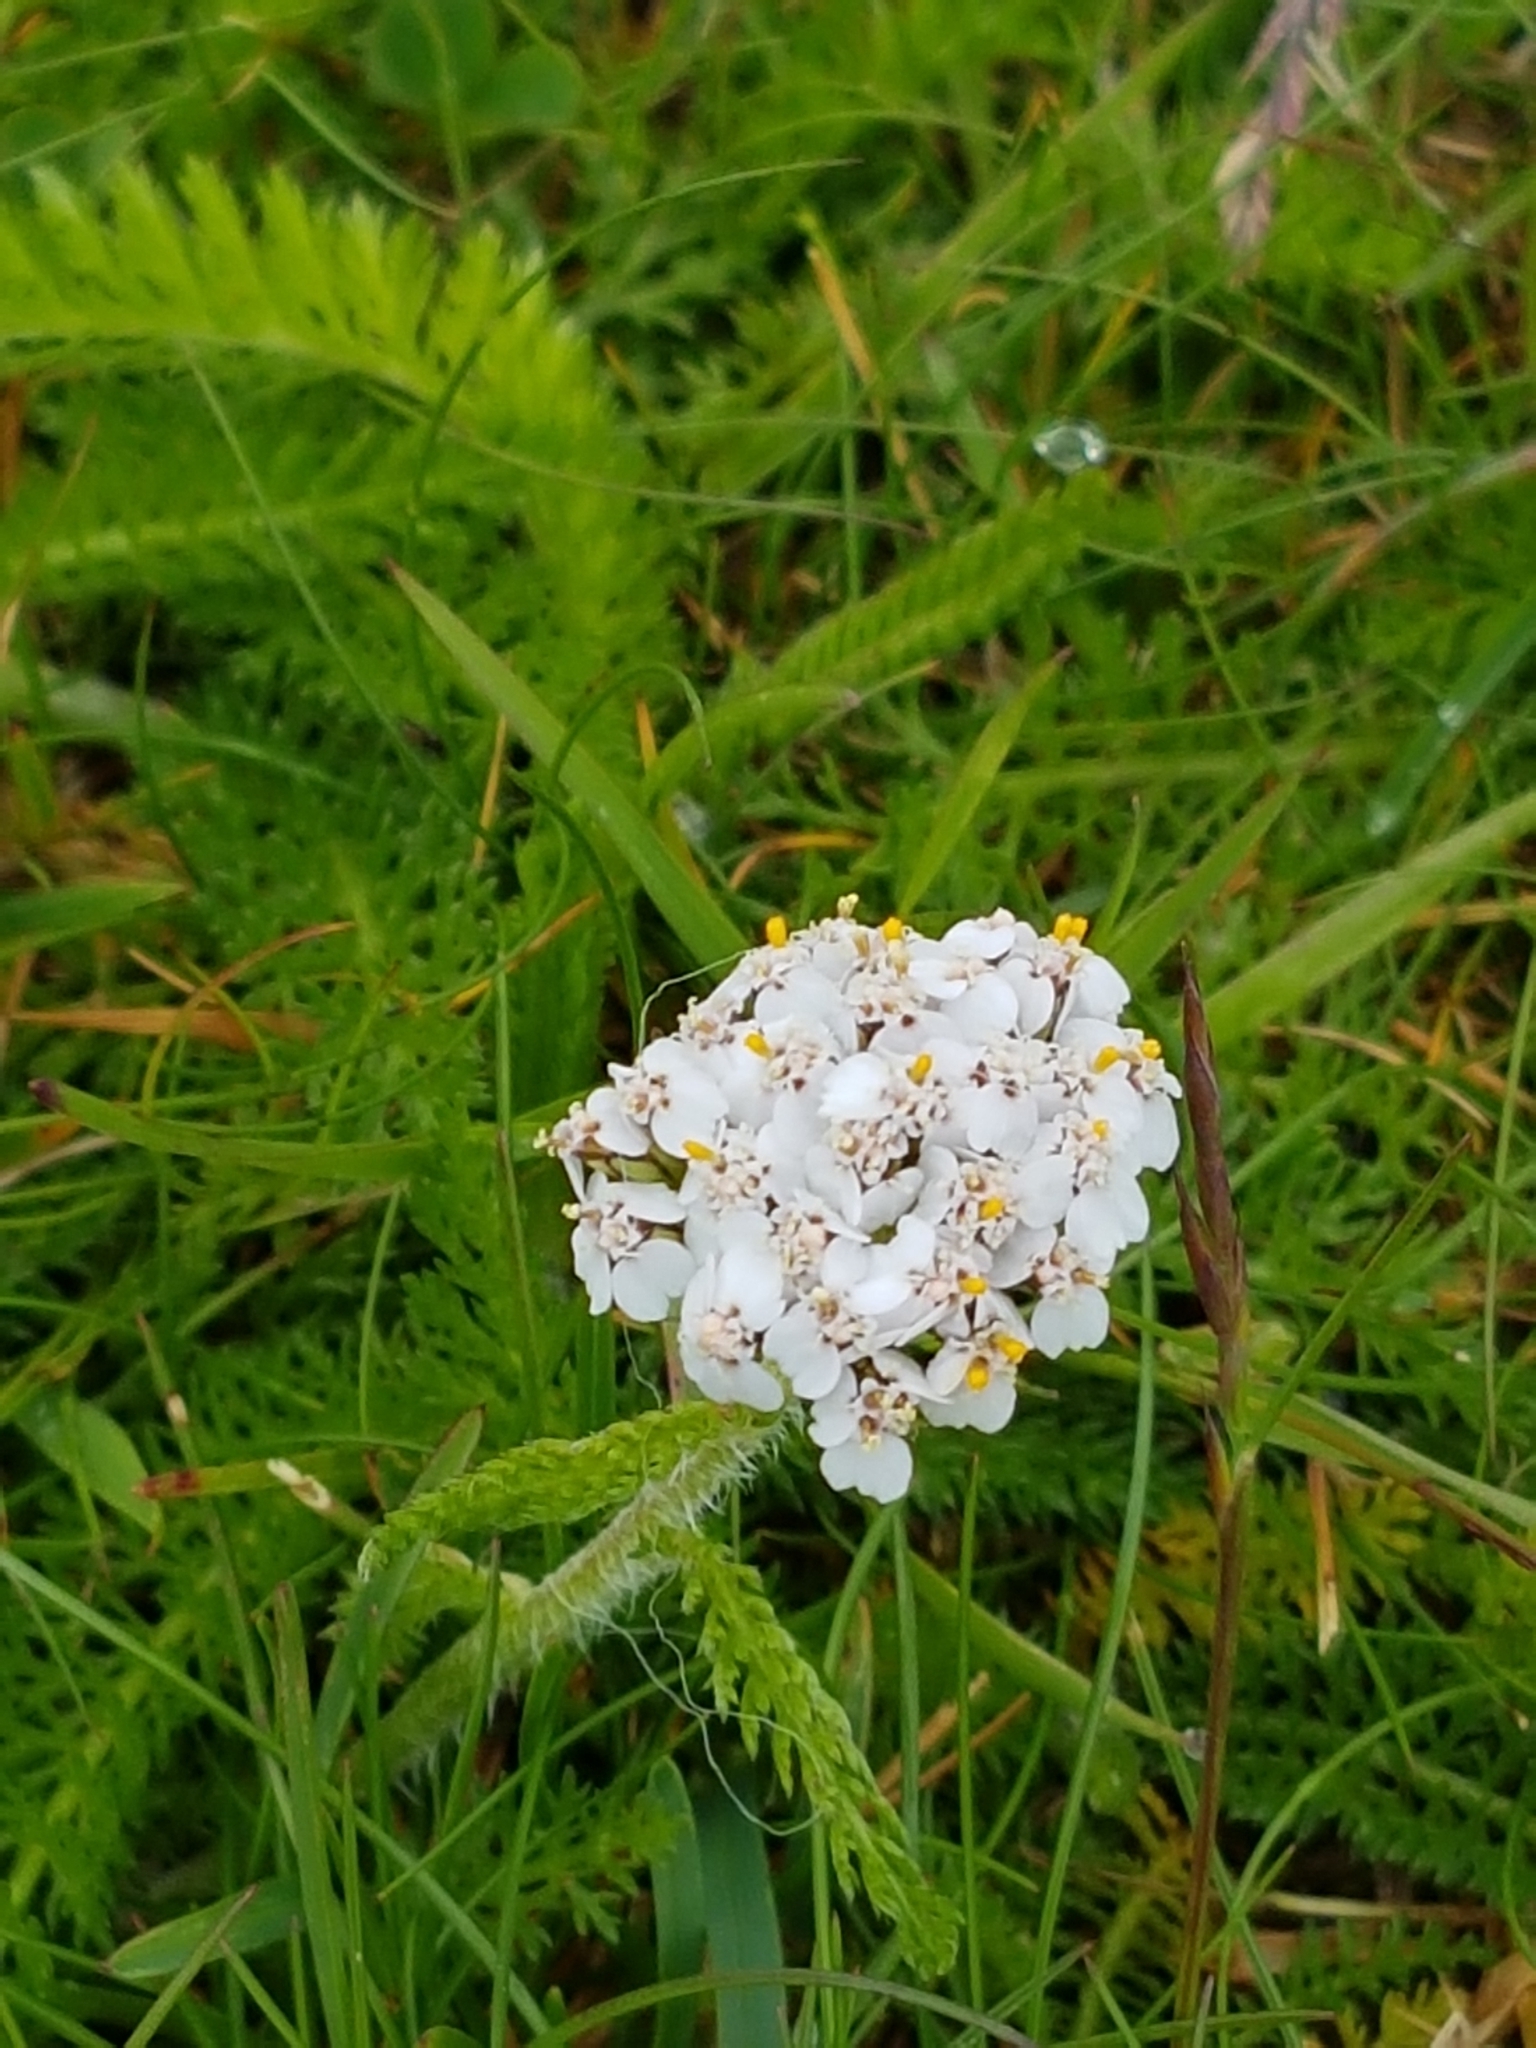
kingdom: Plantae
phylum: Tracheophyta
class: Magnoliopsida
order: Asterales
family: Asteraceae
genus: Achillea
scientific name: Achillea millefolium
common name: Yarrow
